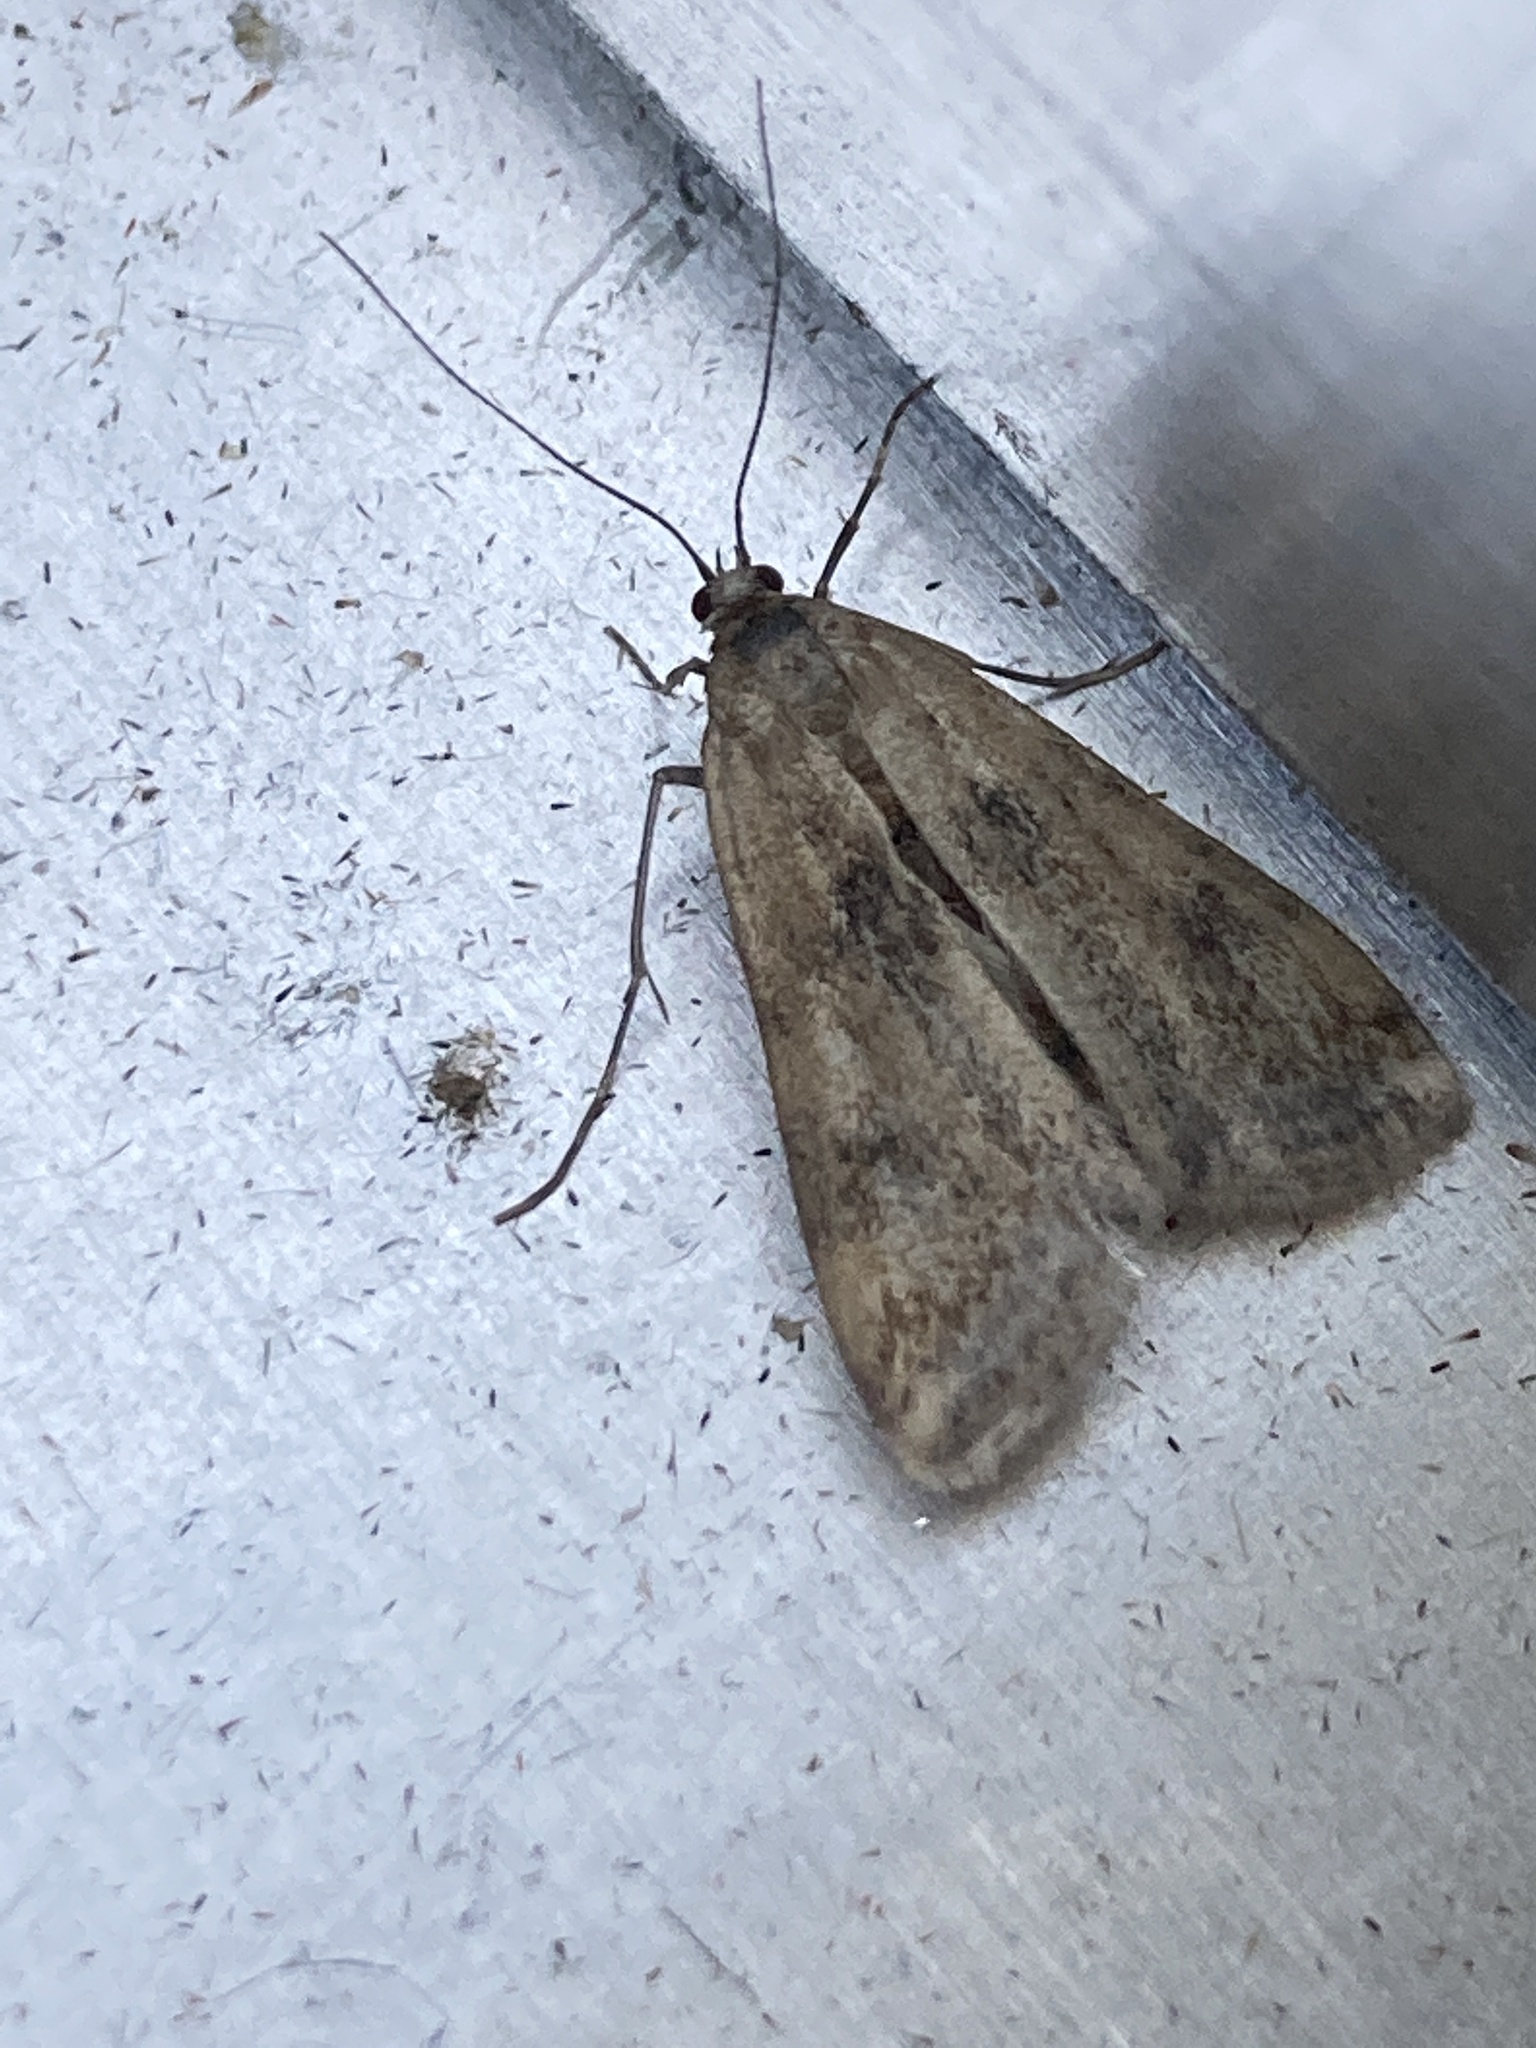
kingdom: Animalia
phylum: Arthropoda
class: Insecta
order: Lepidoptera
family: Crambidae
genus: Cataclysta
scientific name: Cataclysta lemnata
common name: Small china-mark
